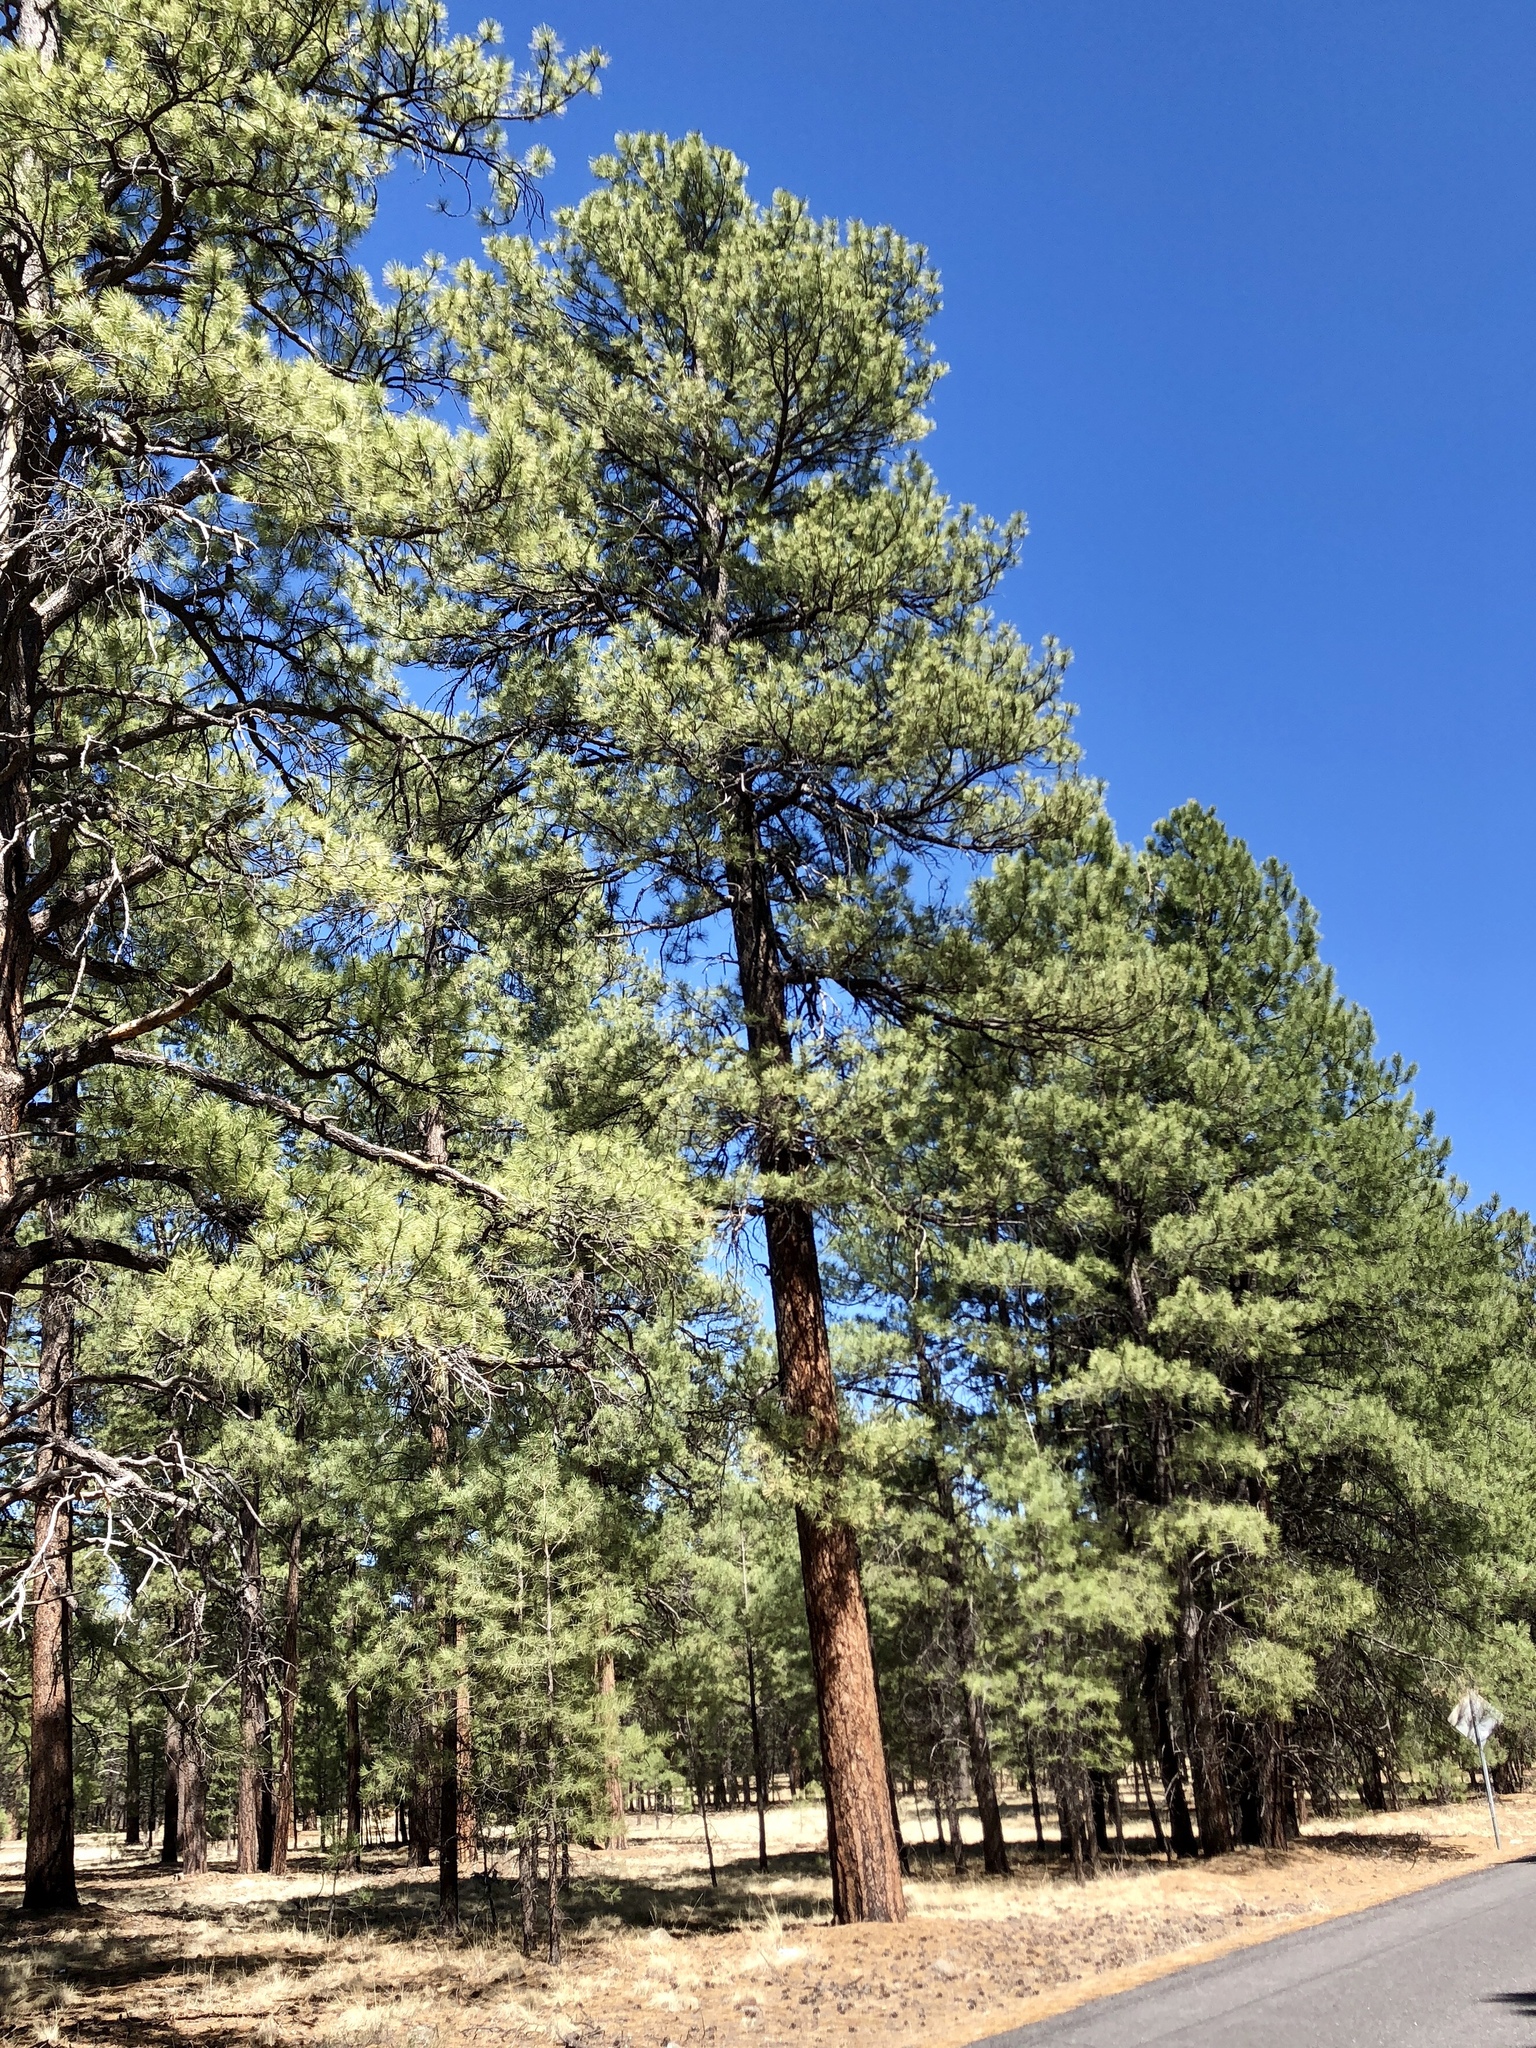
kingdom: Plantae
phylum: Tracheophyta
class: Pinopsida
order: Pinales
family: Pinaceae
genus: Pinus
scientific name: Pinus ponderosa
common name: Western yellow-pine
